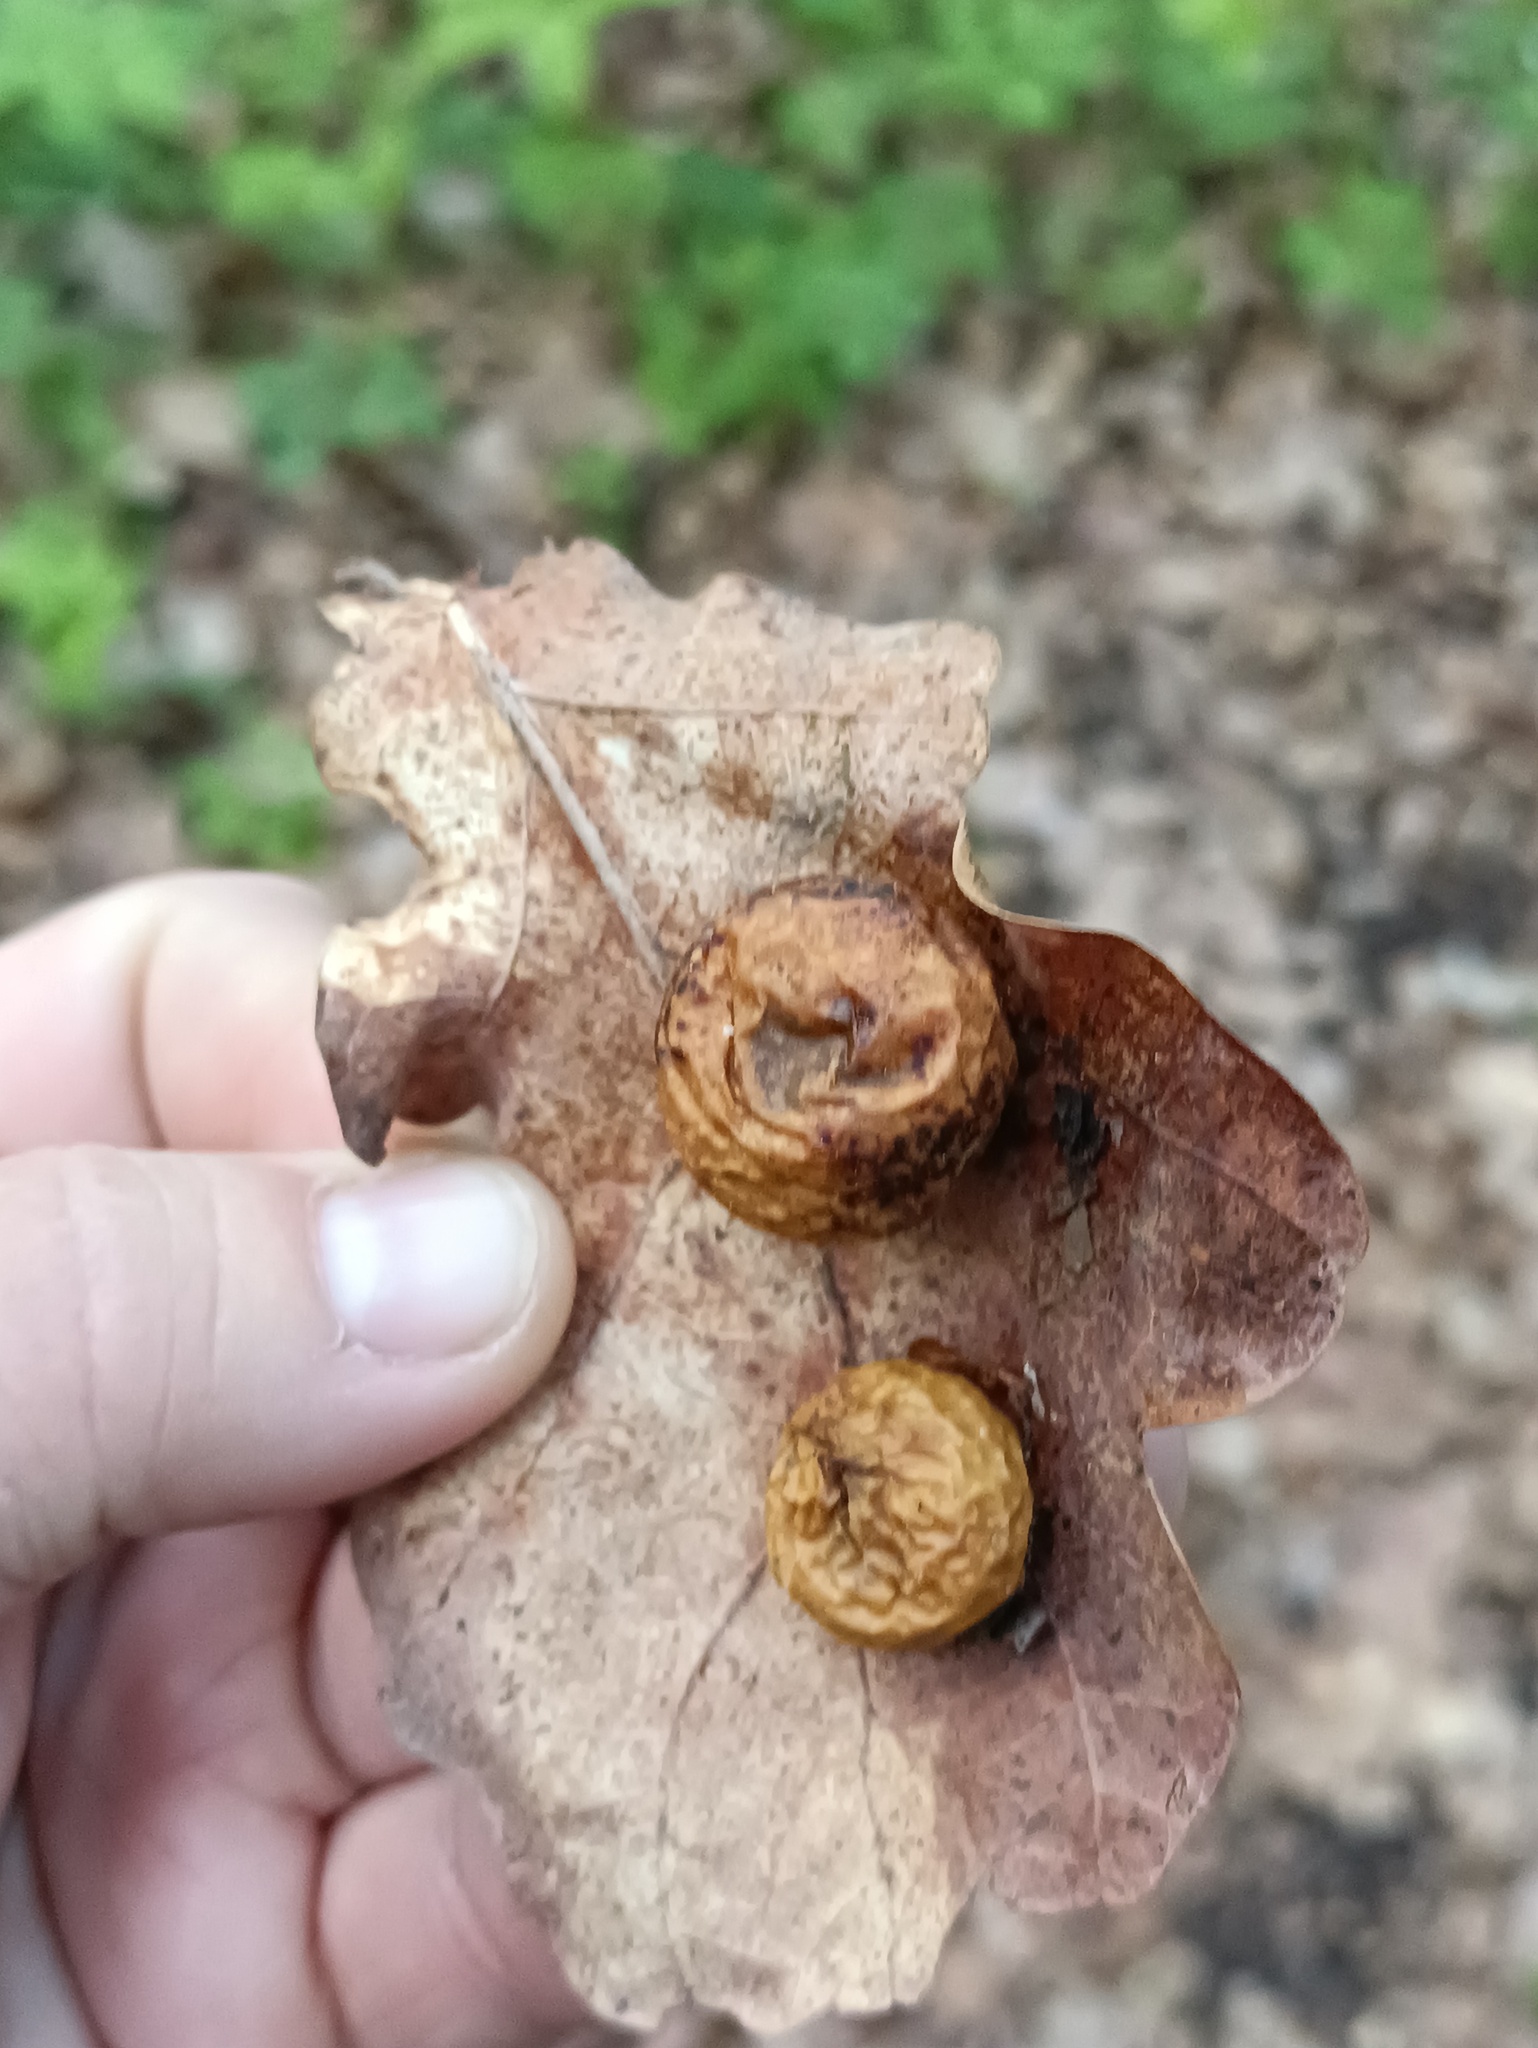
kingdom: Animalia
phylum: Arthropoda
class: Insecta
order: Hymenoptera
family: Cynipidae
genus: Cynips
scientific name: Cynips quercusfolii
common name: Cherry gall
